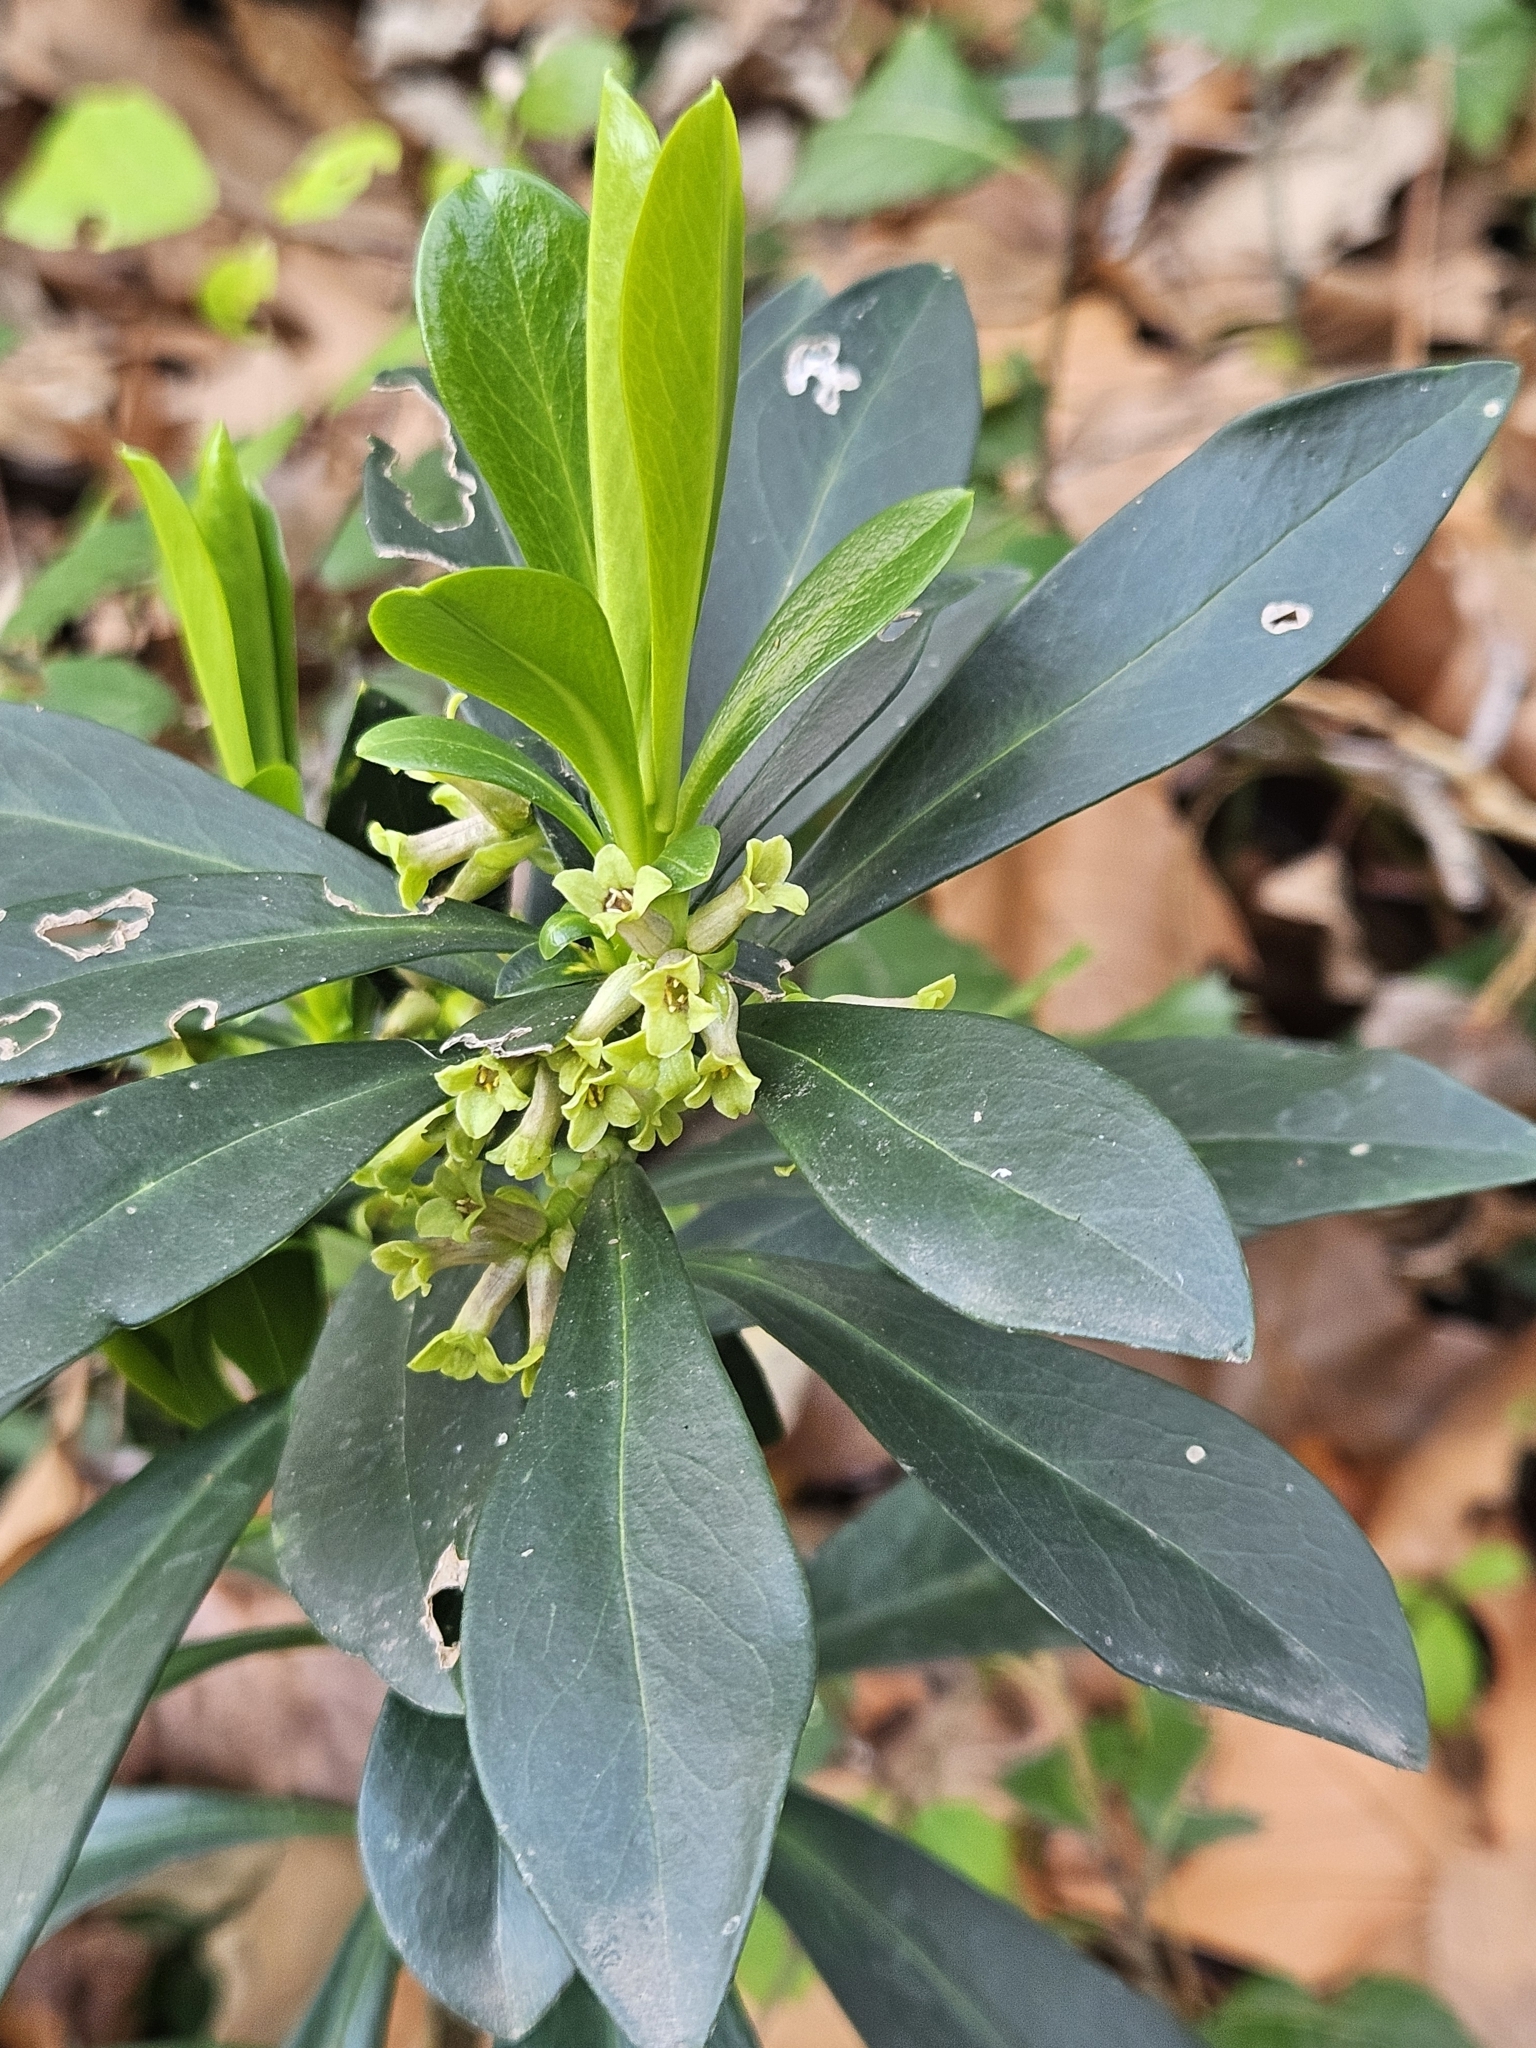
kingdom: Plantae
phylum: Tracheophyta
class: Magnoliopsida
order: Malvales
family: Thymelaeaceae
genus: Daphne
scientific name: Daphne laureola
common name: Spurge-laurel
